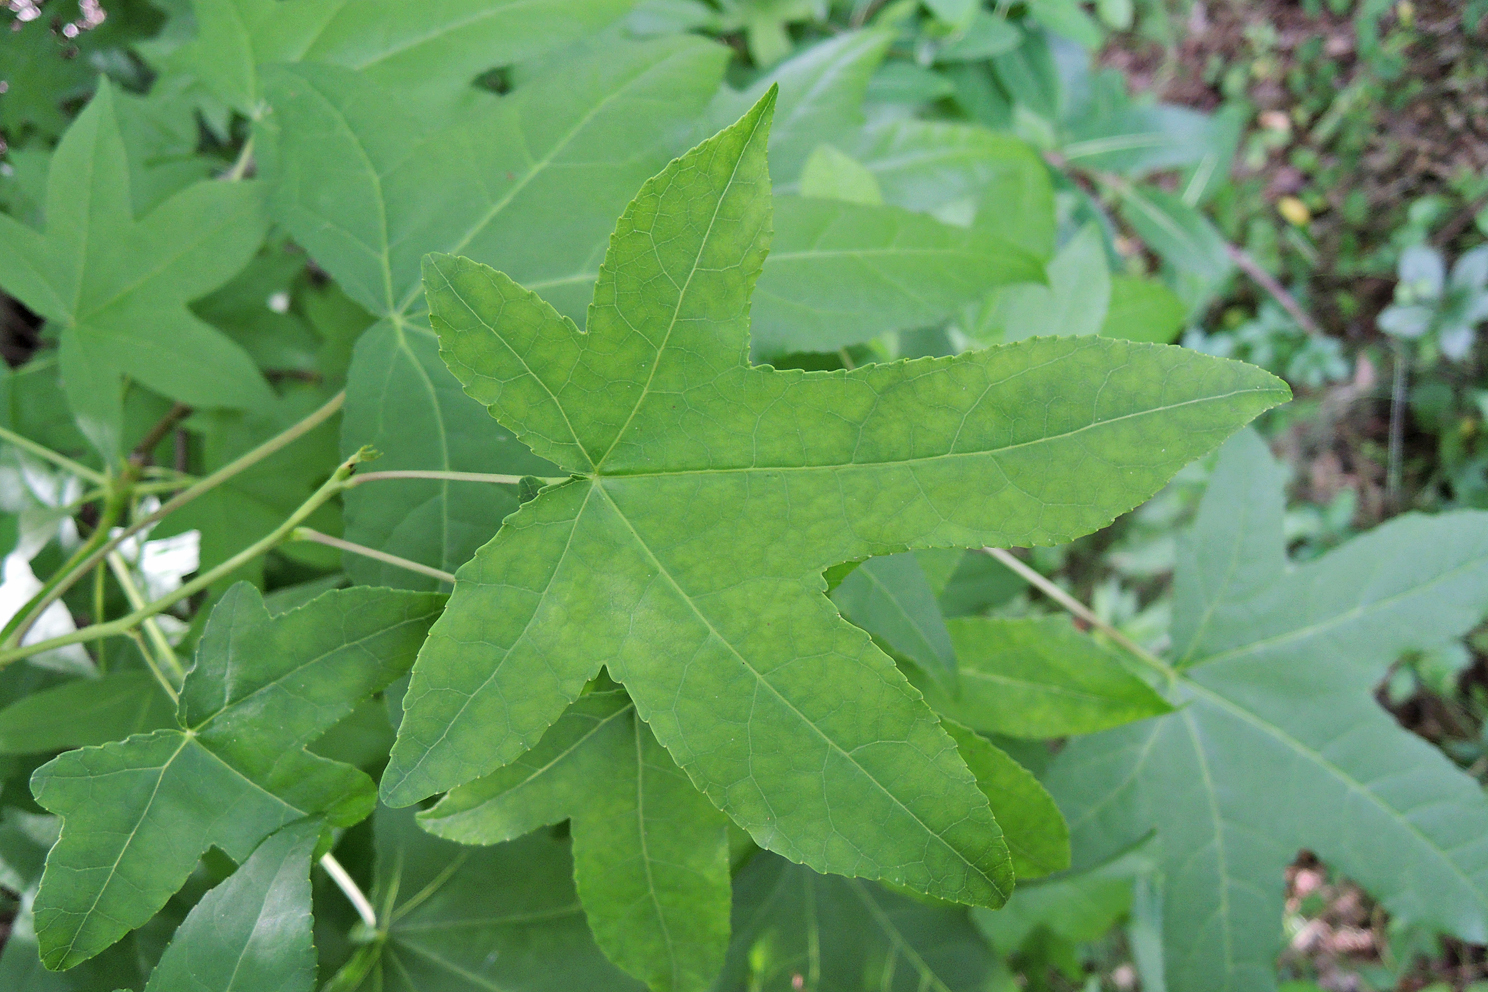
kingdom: Plantae
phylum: Tracheophyta
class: Magnoliopsida
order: Saxifragales
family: Altingiaceae
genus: Liquidambar
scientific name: Liquidambar styraciflua
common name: Sweet gum
